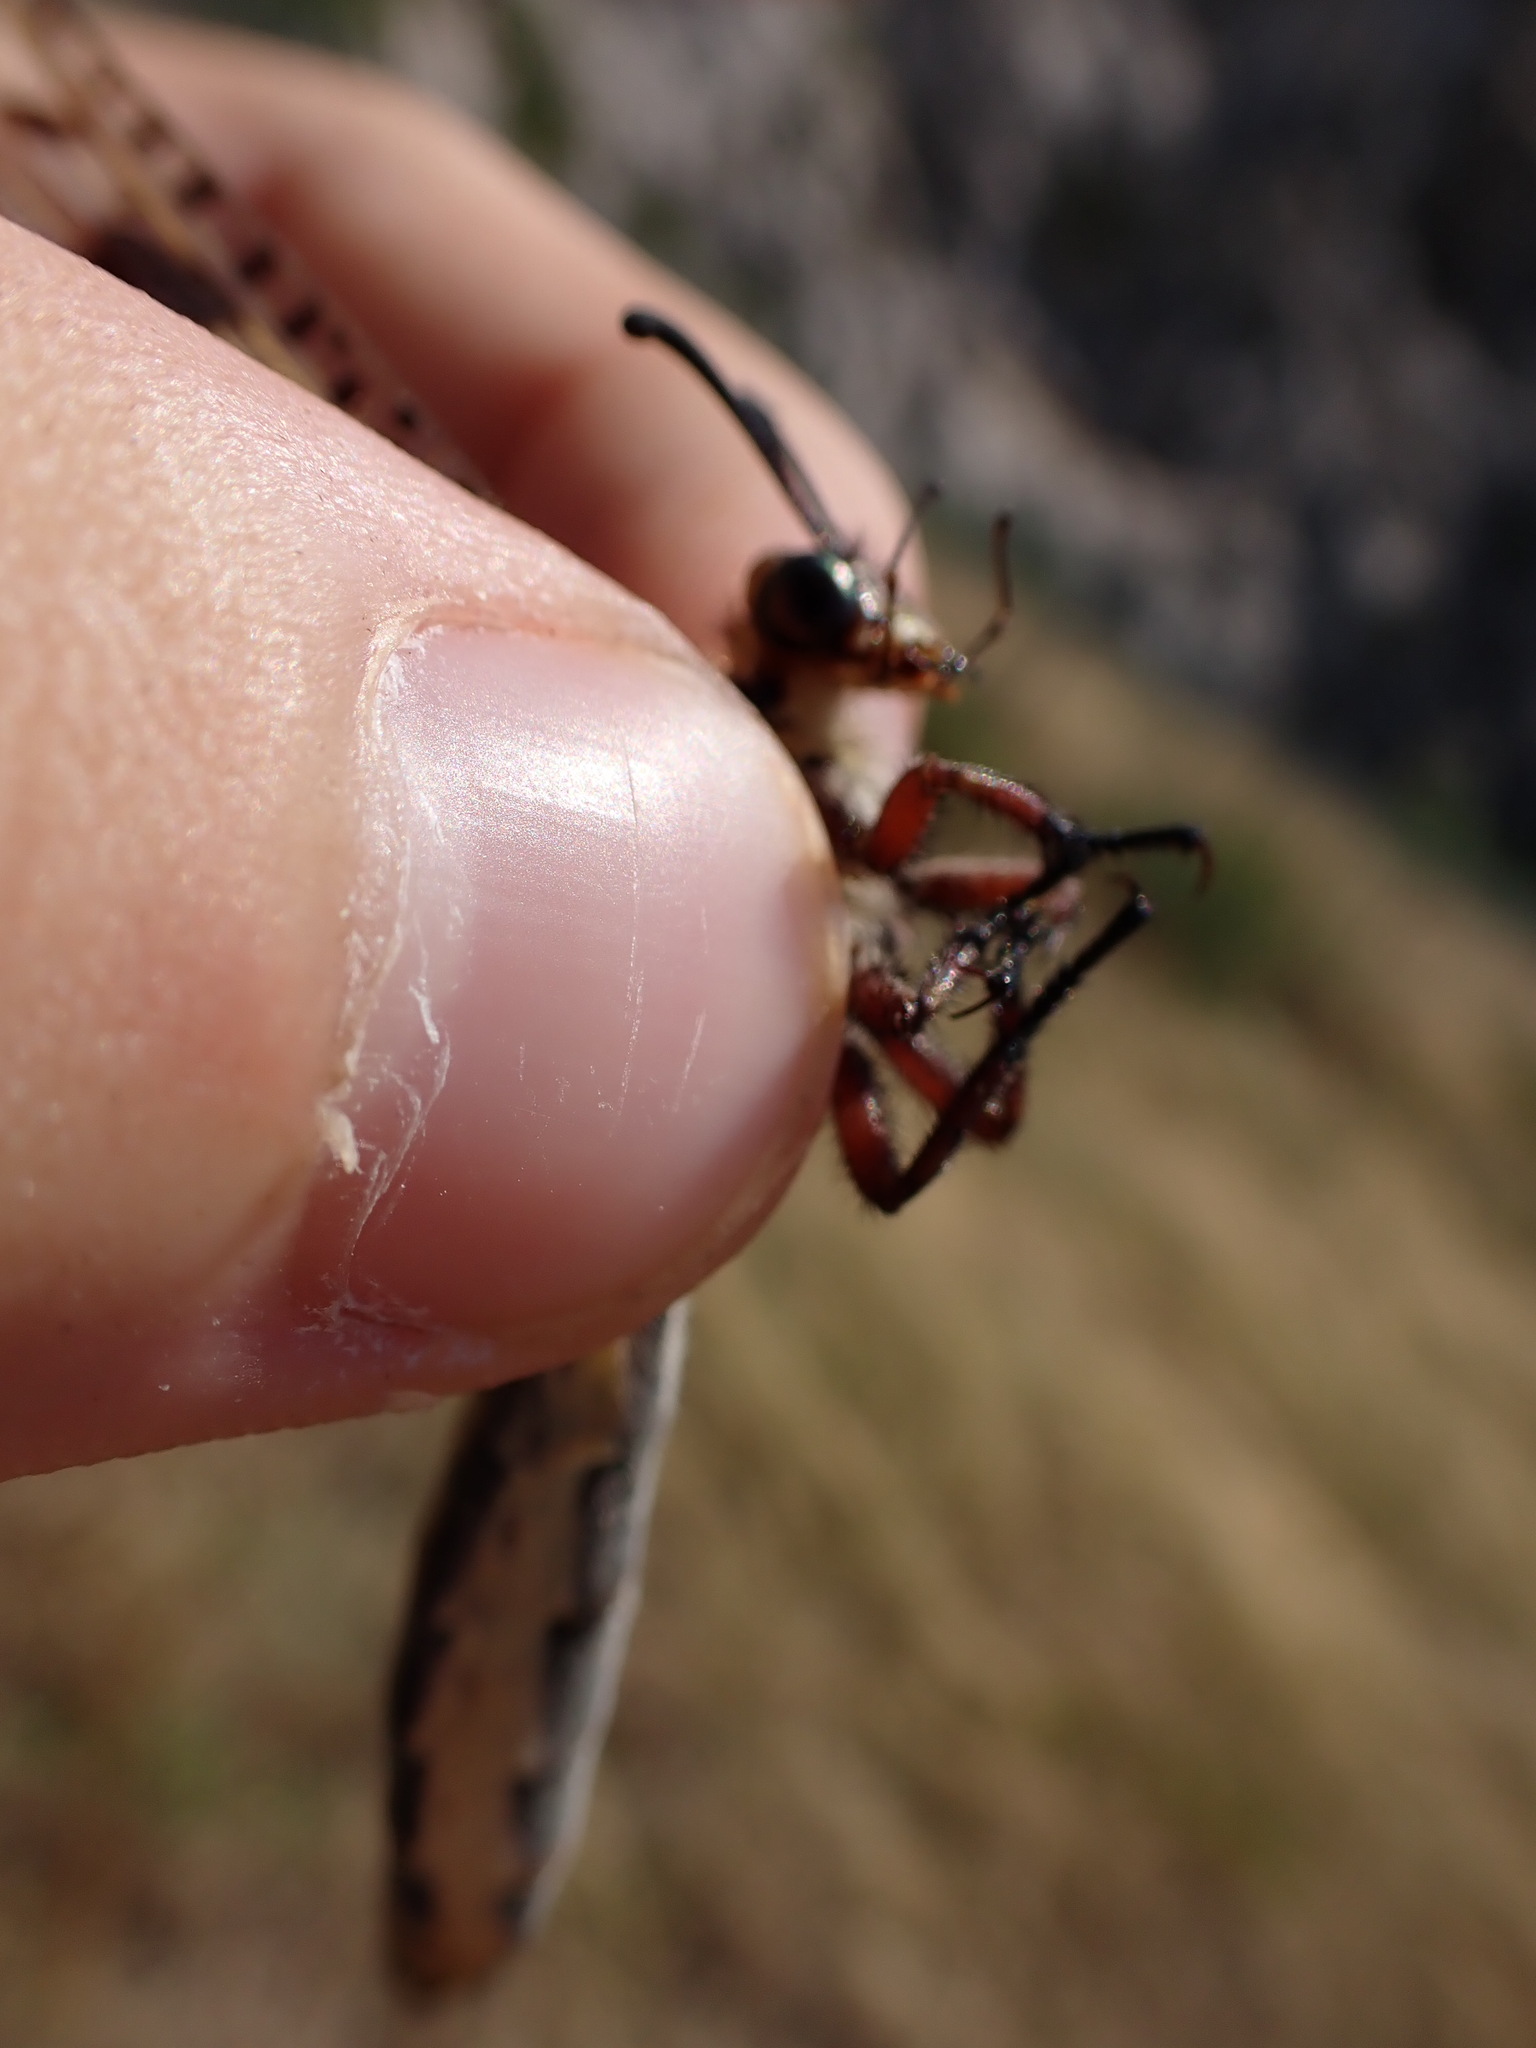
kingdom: Animalia
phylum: Arthropoda
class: Insecta
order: Neuroptera
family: Myrmeleontidae
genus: Palpares
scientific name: Palpares libelluloides
